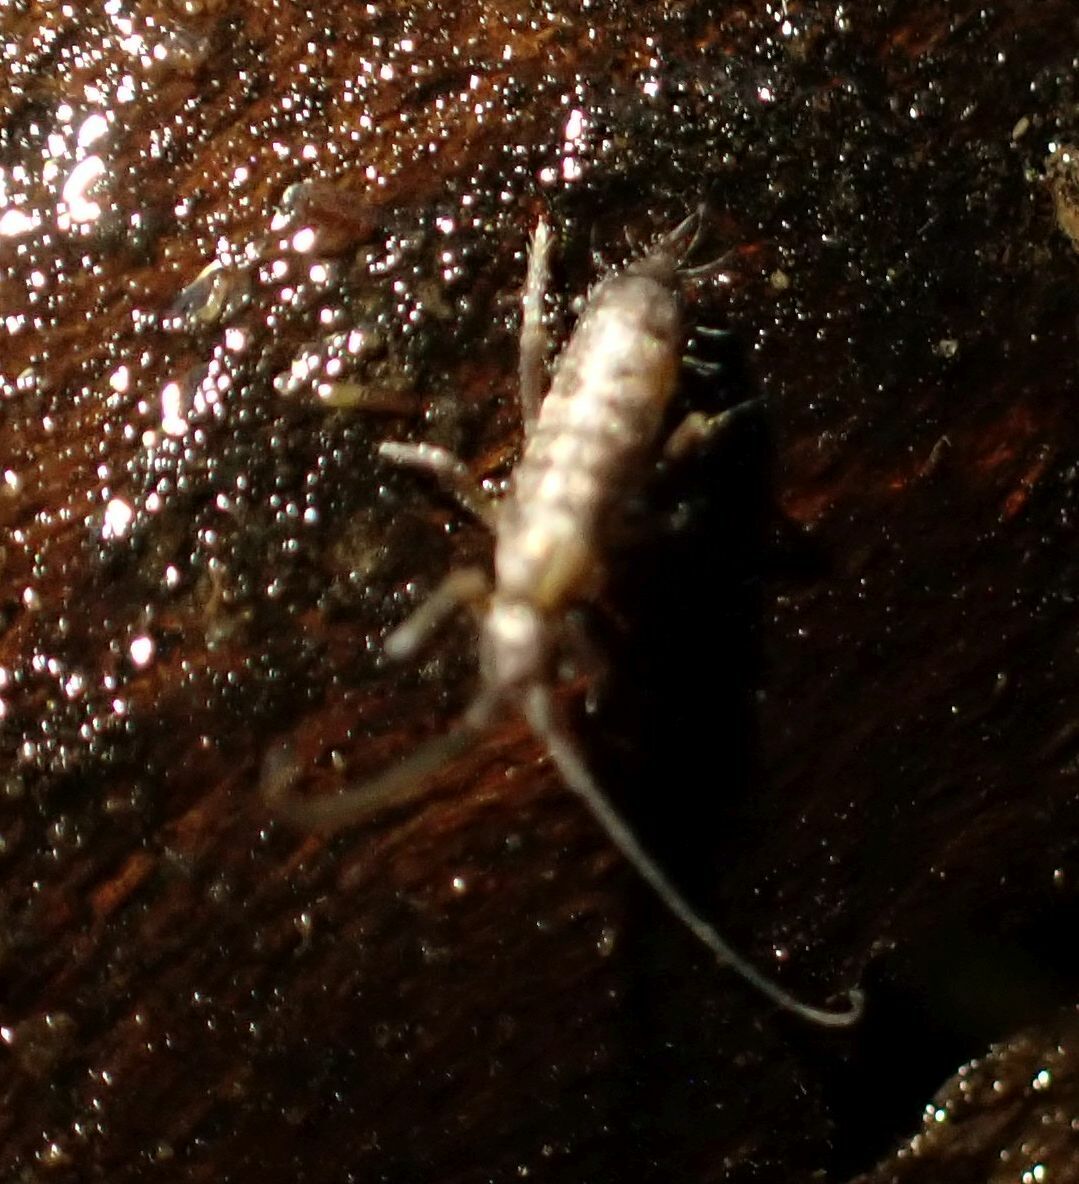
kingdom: Animalia
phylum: Arthropoda
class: Collembola
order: Entomobryomorpha
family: Tomoceridae
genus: Pogonognathellus
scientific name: Pogonognathellus longicornis
